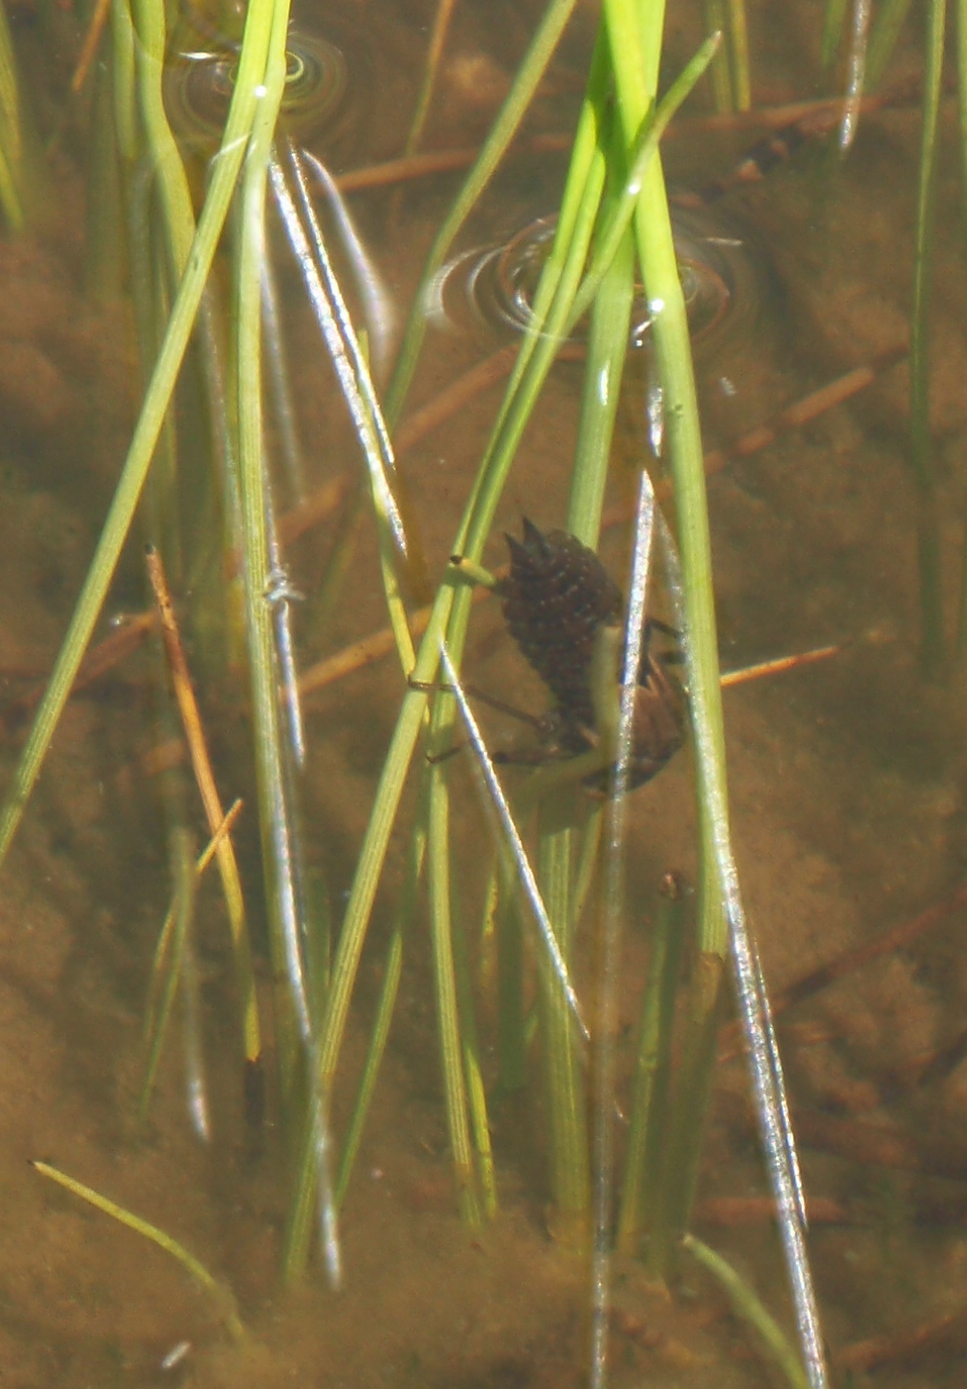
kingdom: Animalia
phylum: Arthropoda
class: Insecta
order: Odonata
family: Aeshnidae
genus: Aeshna
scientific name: Aeshna juncea
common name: Moorland hawker
